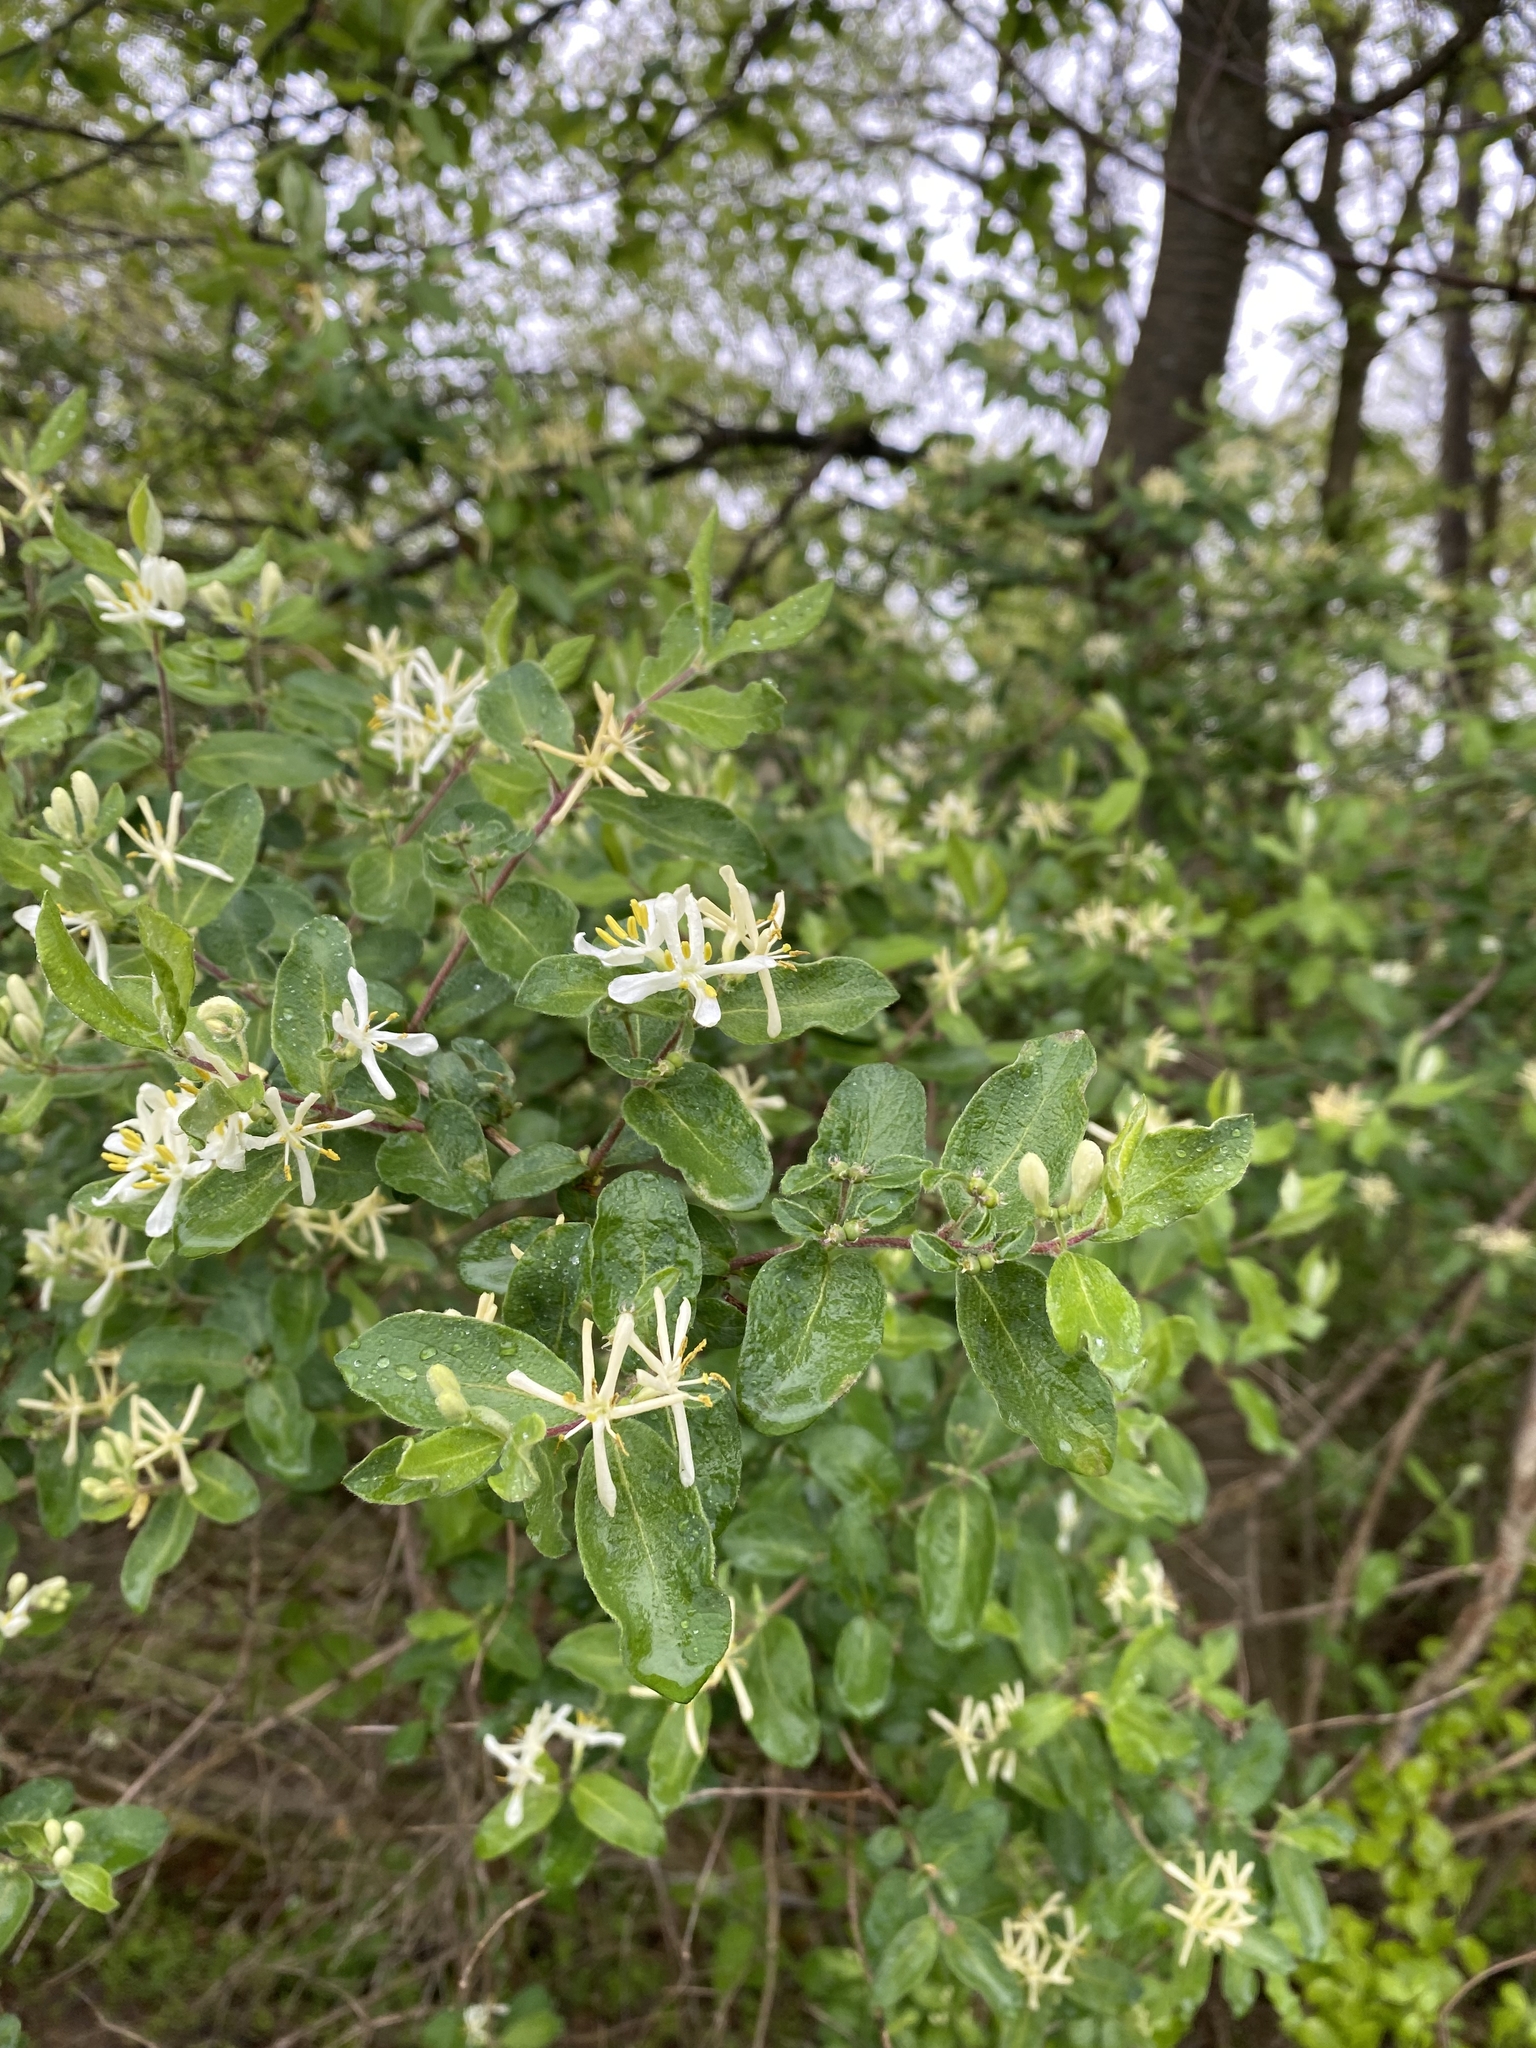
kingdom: Plantae
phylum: Tracheophyta
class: Magnoliopsida
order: Dipsacales
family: Caprifoliaceae
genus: Lonicera
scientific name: Lonicera morrowii
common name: Morrow's honeysuckle
